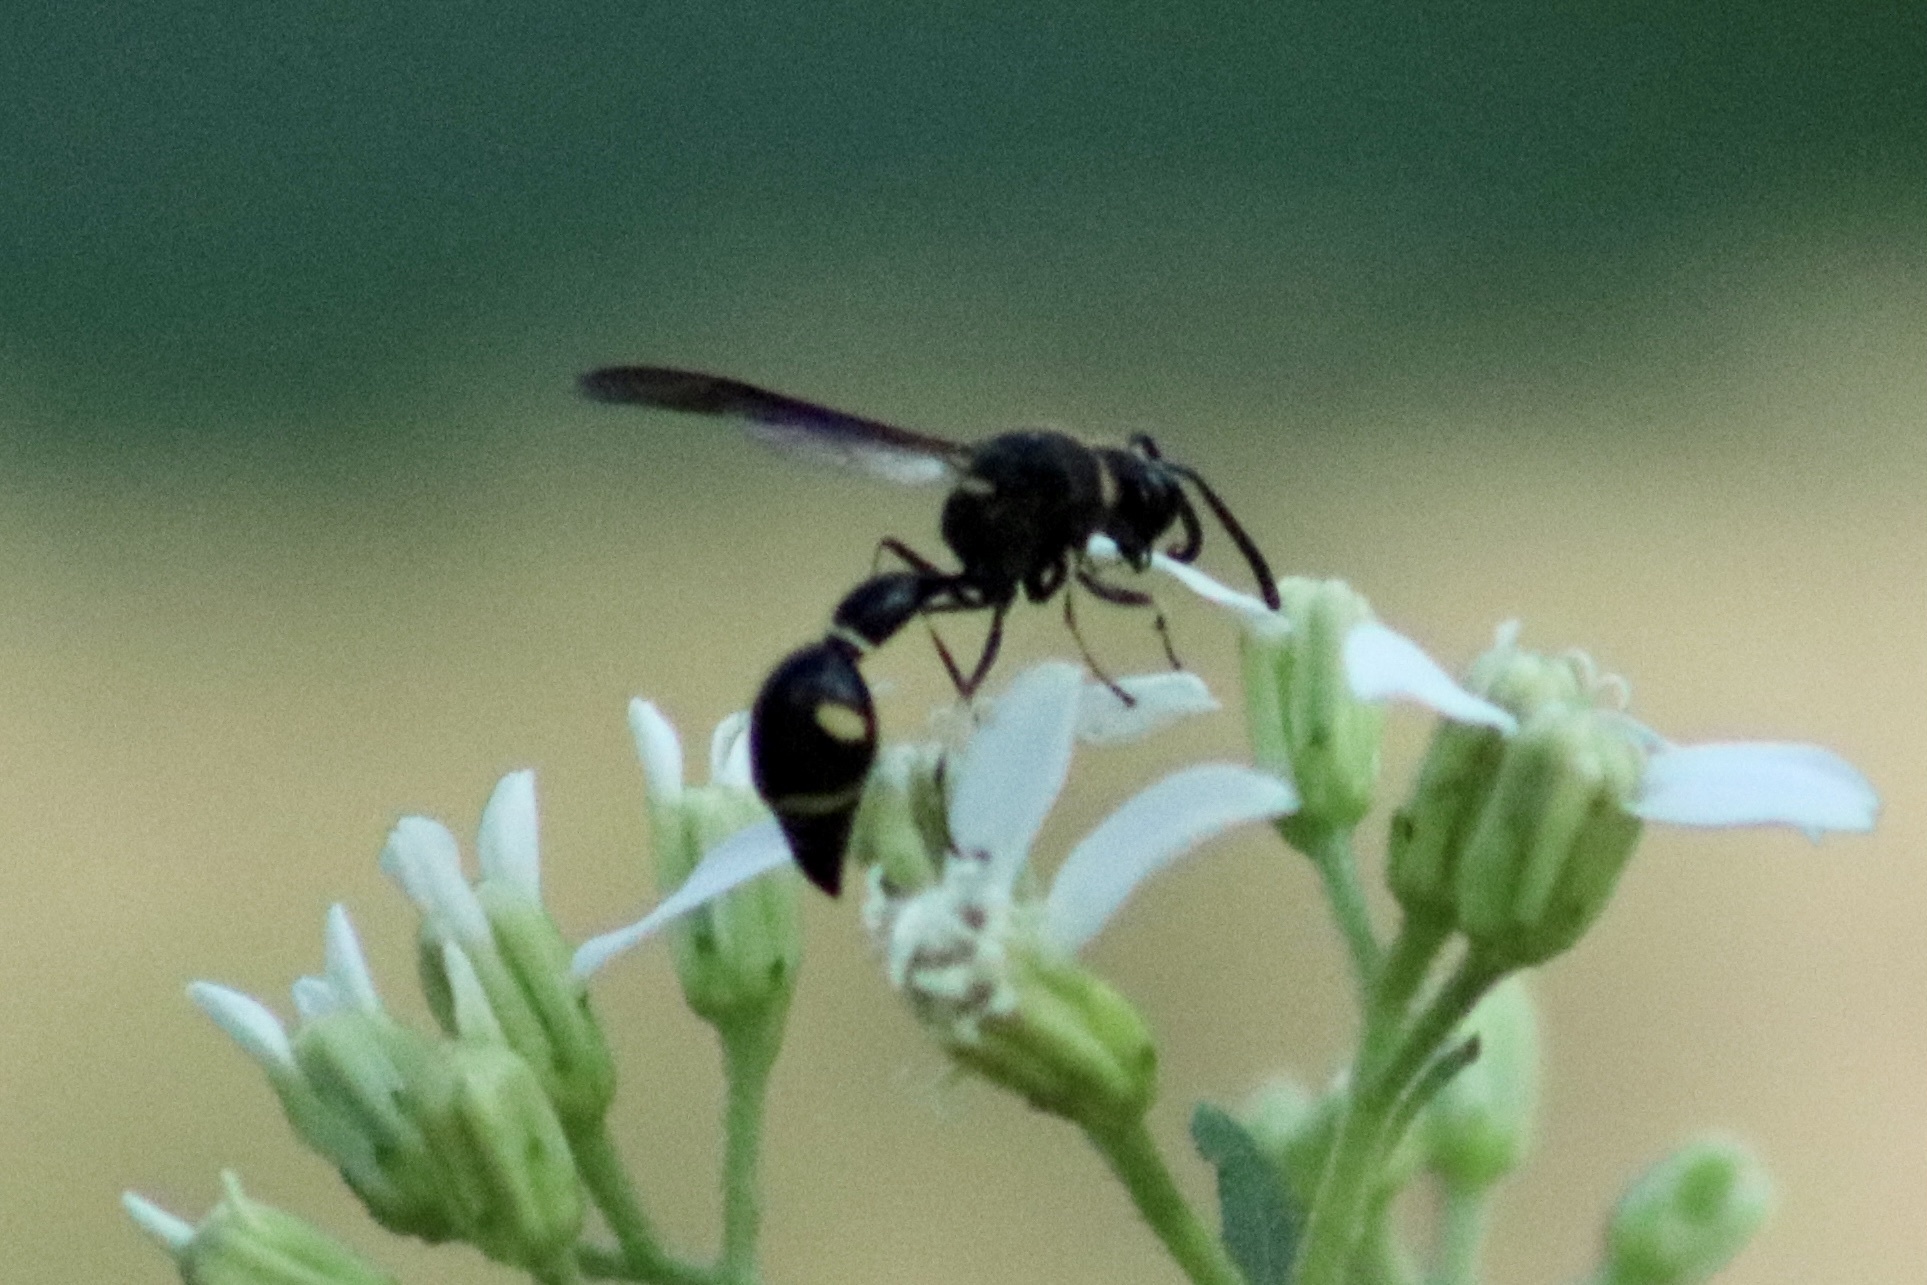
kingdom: Animalia
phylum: Arthropoda
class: Insecta
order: Hymenoptera
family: Vespidae
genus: Eumenes
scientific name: Eumenes fraternus
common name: Fraternal potter wasp
